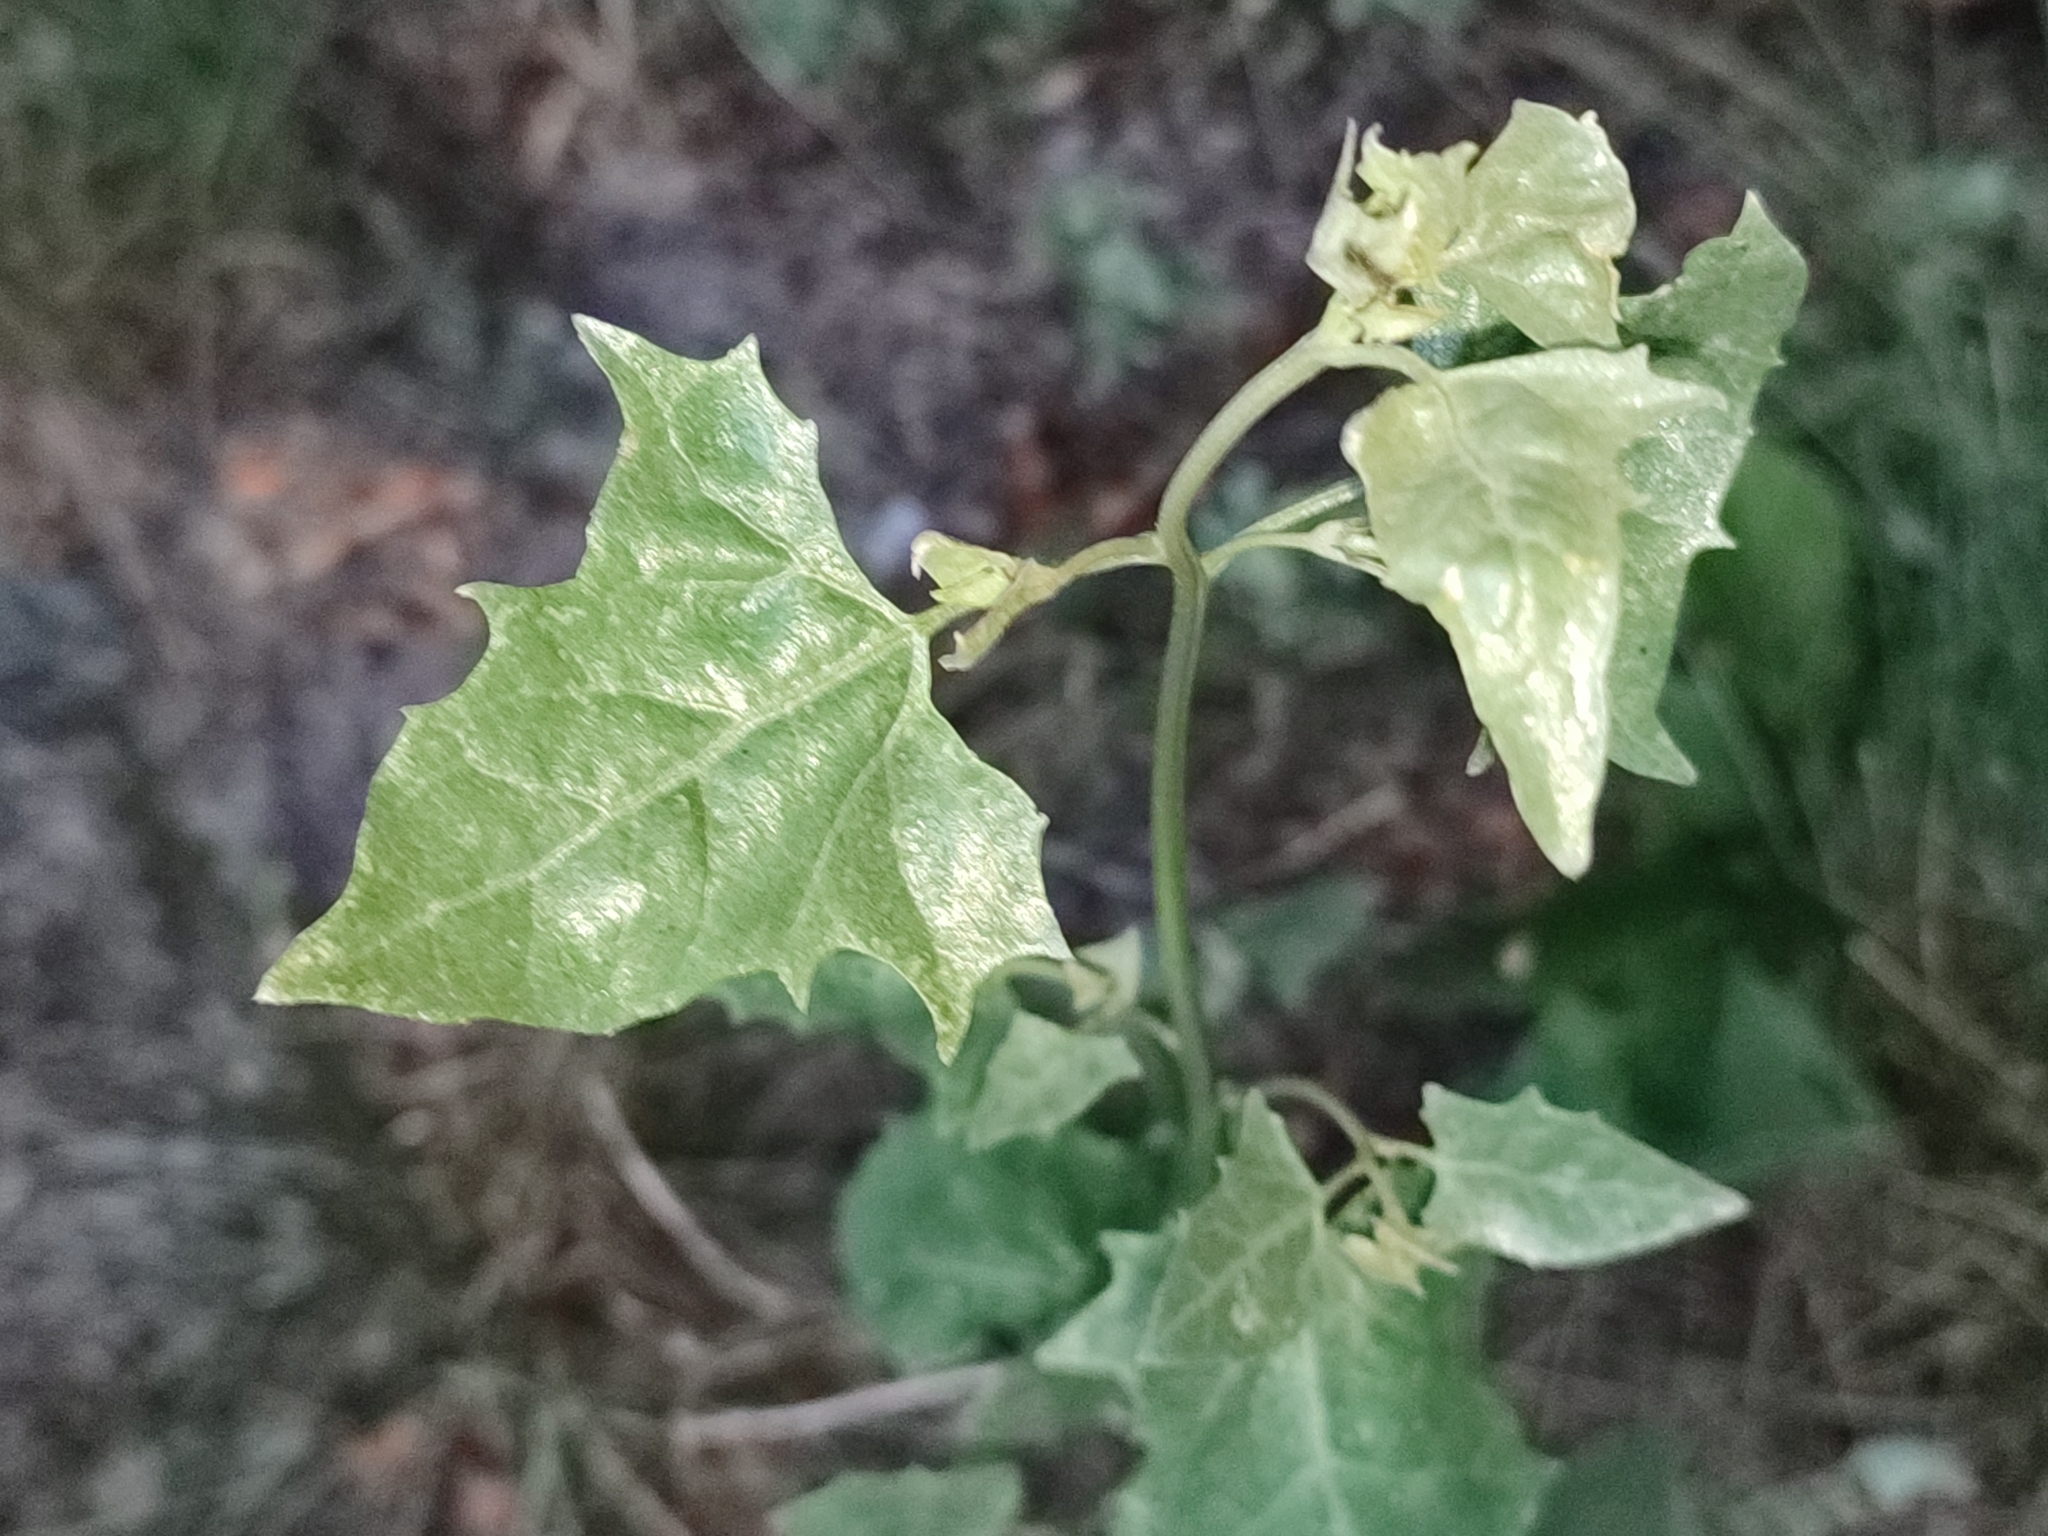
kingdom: Plantae
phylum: Tracheophyta
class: Magnoliopsida
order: Caryophyllales
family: Amaranthaceae
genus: Atriplex
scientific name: Atriplex sagittata
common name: Purple orache
